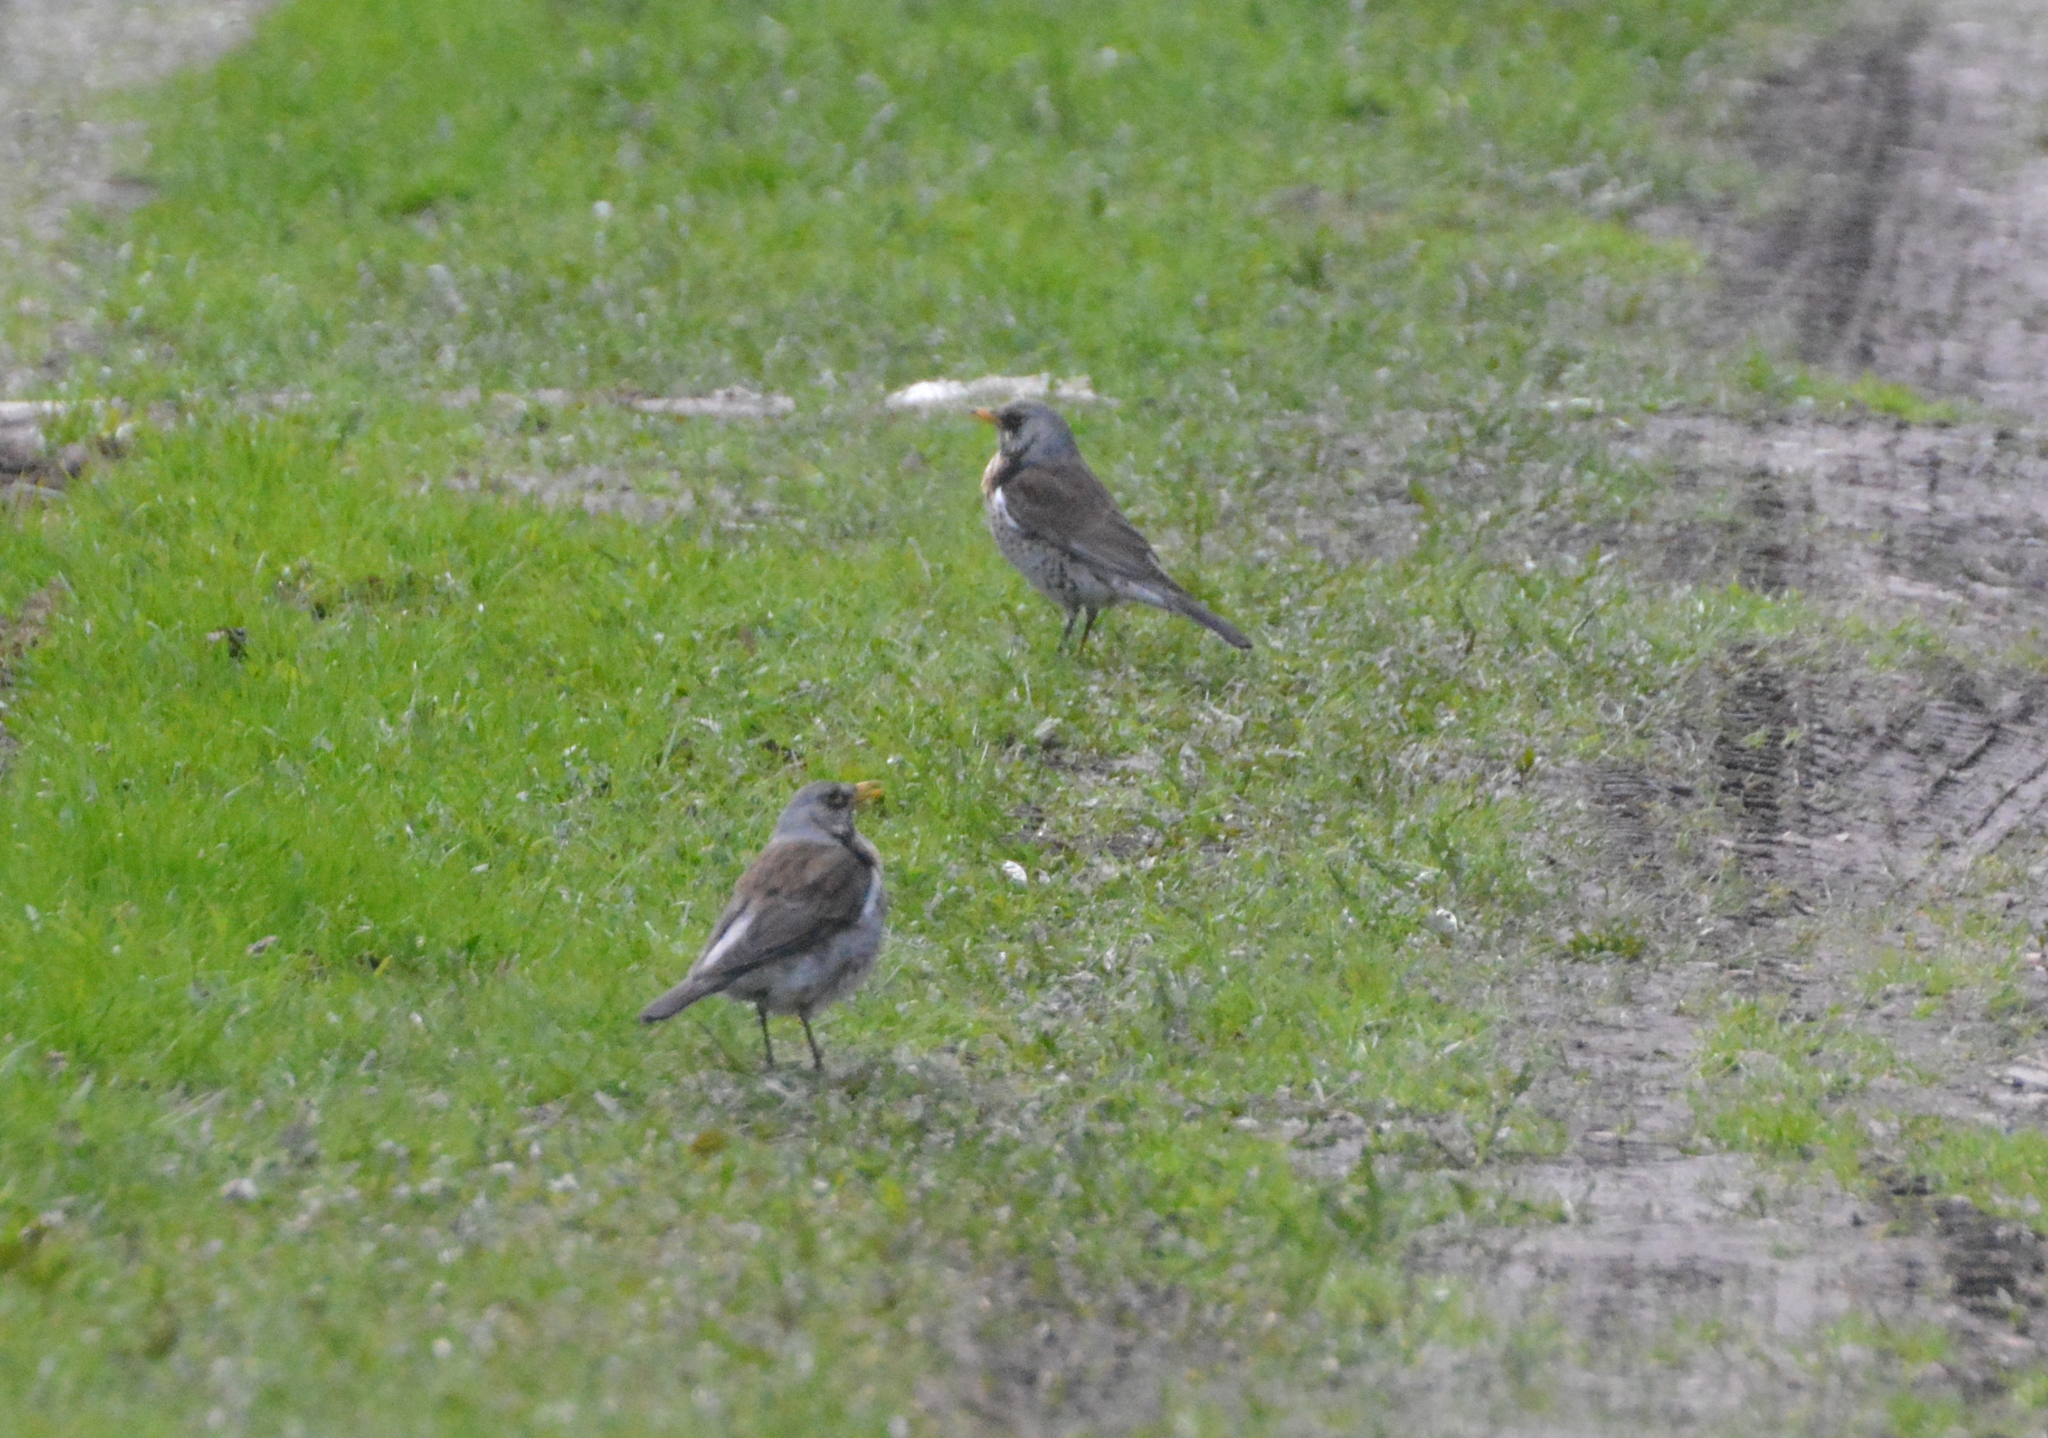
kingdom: Animalia
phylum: Chordata
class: Aves
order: Passeriformes
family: Turdidae
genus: Turdus
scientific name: Turdus pilaris
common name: Fieldfare
